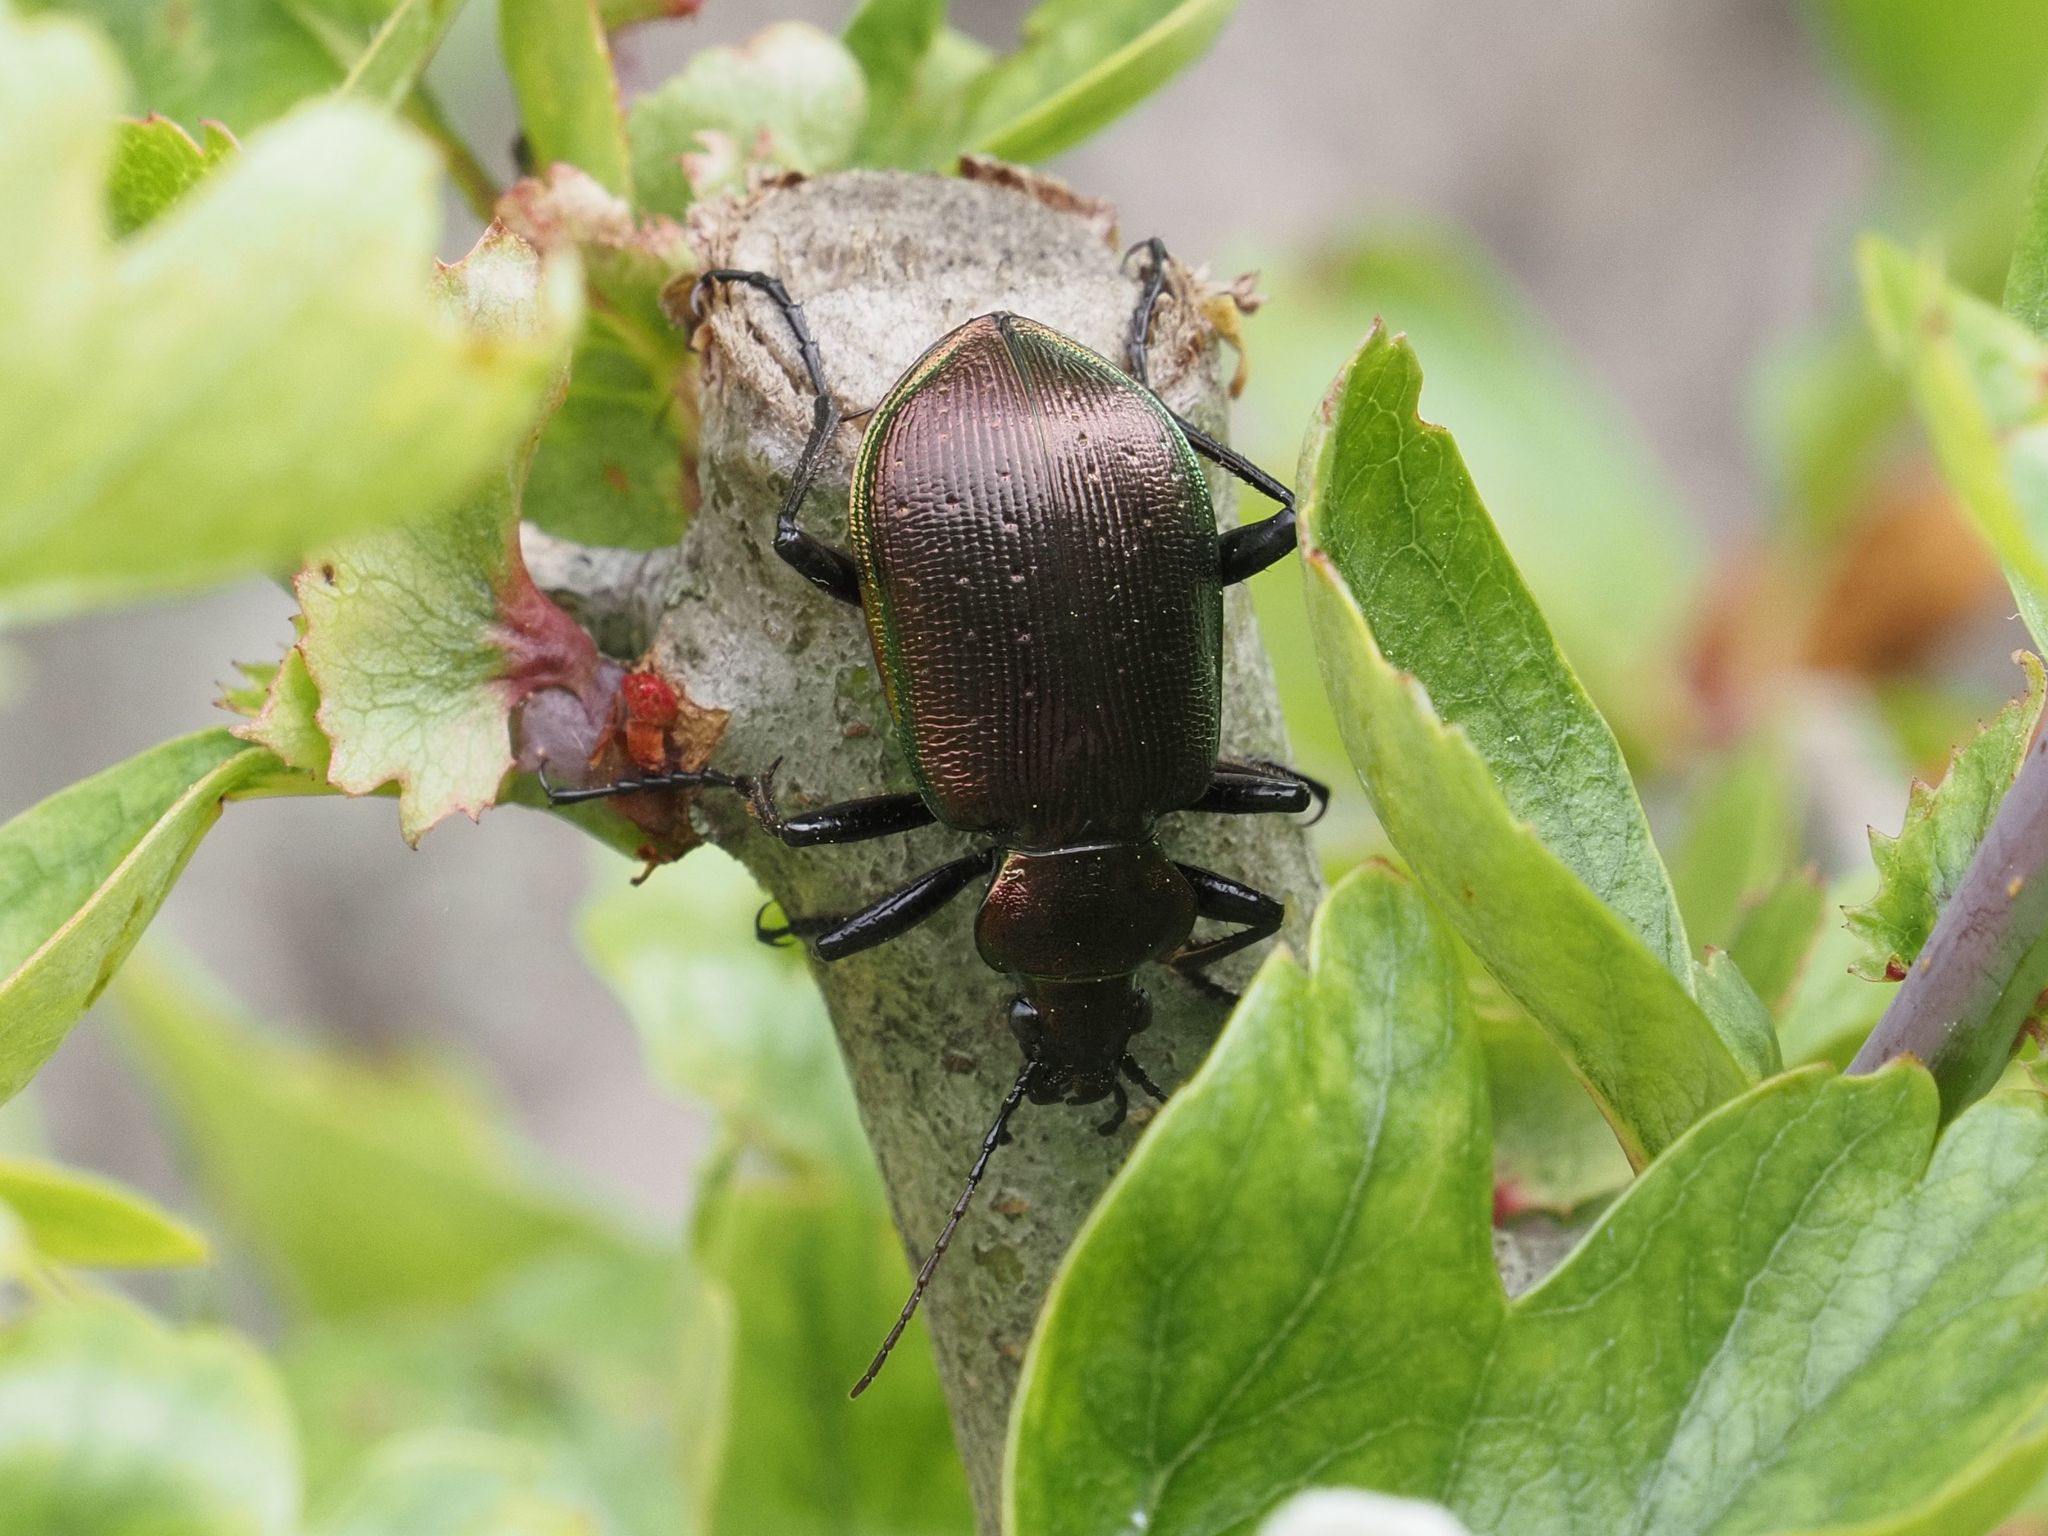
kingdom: Animalia
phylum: Arthropoda
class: Insecta
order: Coleoptera
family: Carabidae
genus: Calosoma
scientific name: Calosoma inquisitor
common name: Caterpillar-hunter
